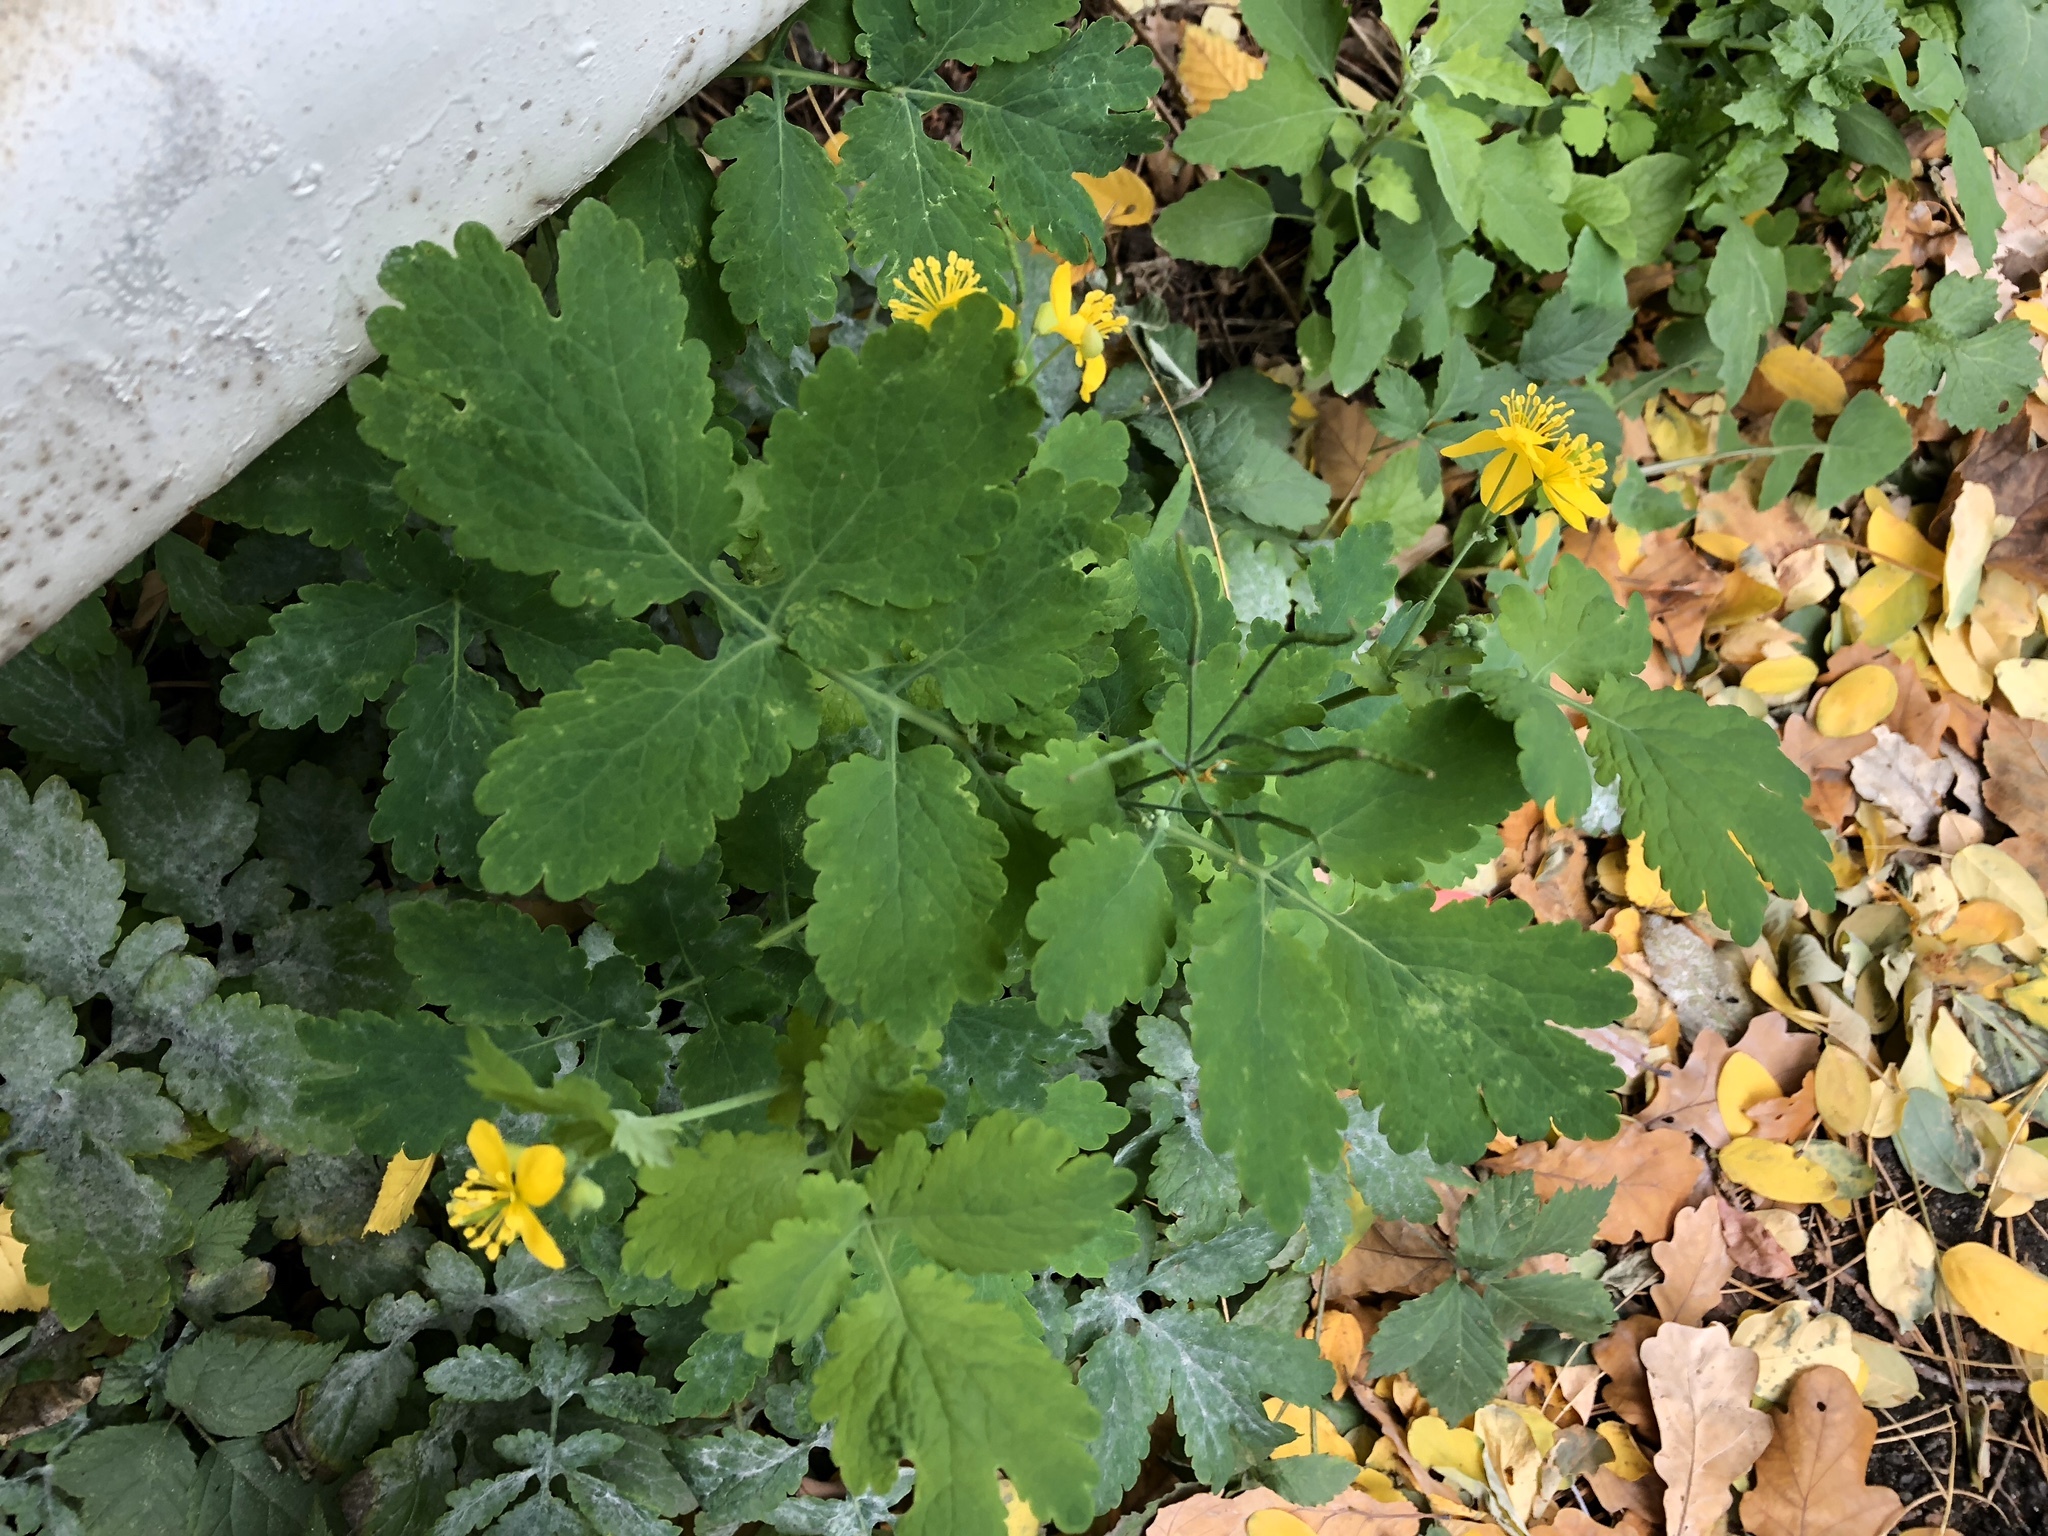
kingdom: Plantae
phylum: Tracheophyta
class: Magnoliopsida
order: Ranunculales
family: Papaveraceae
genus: Chelidonium
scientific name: Chelidonium majus
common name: Greater celandine
